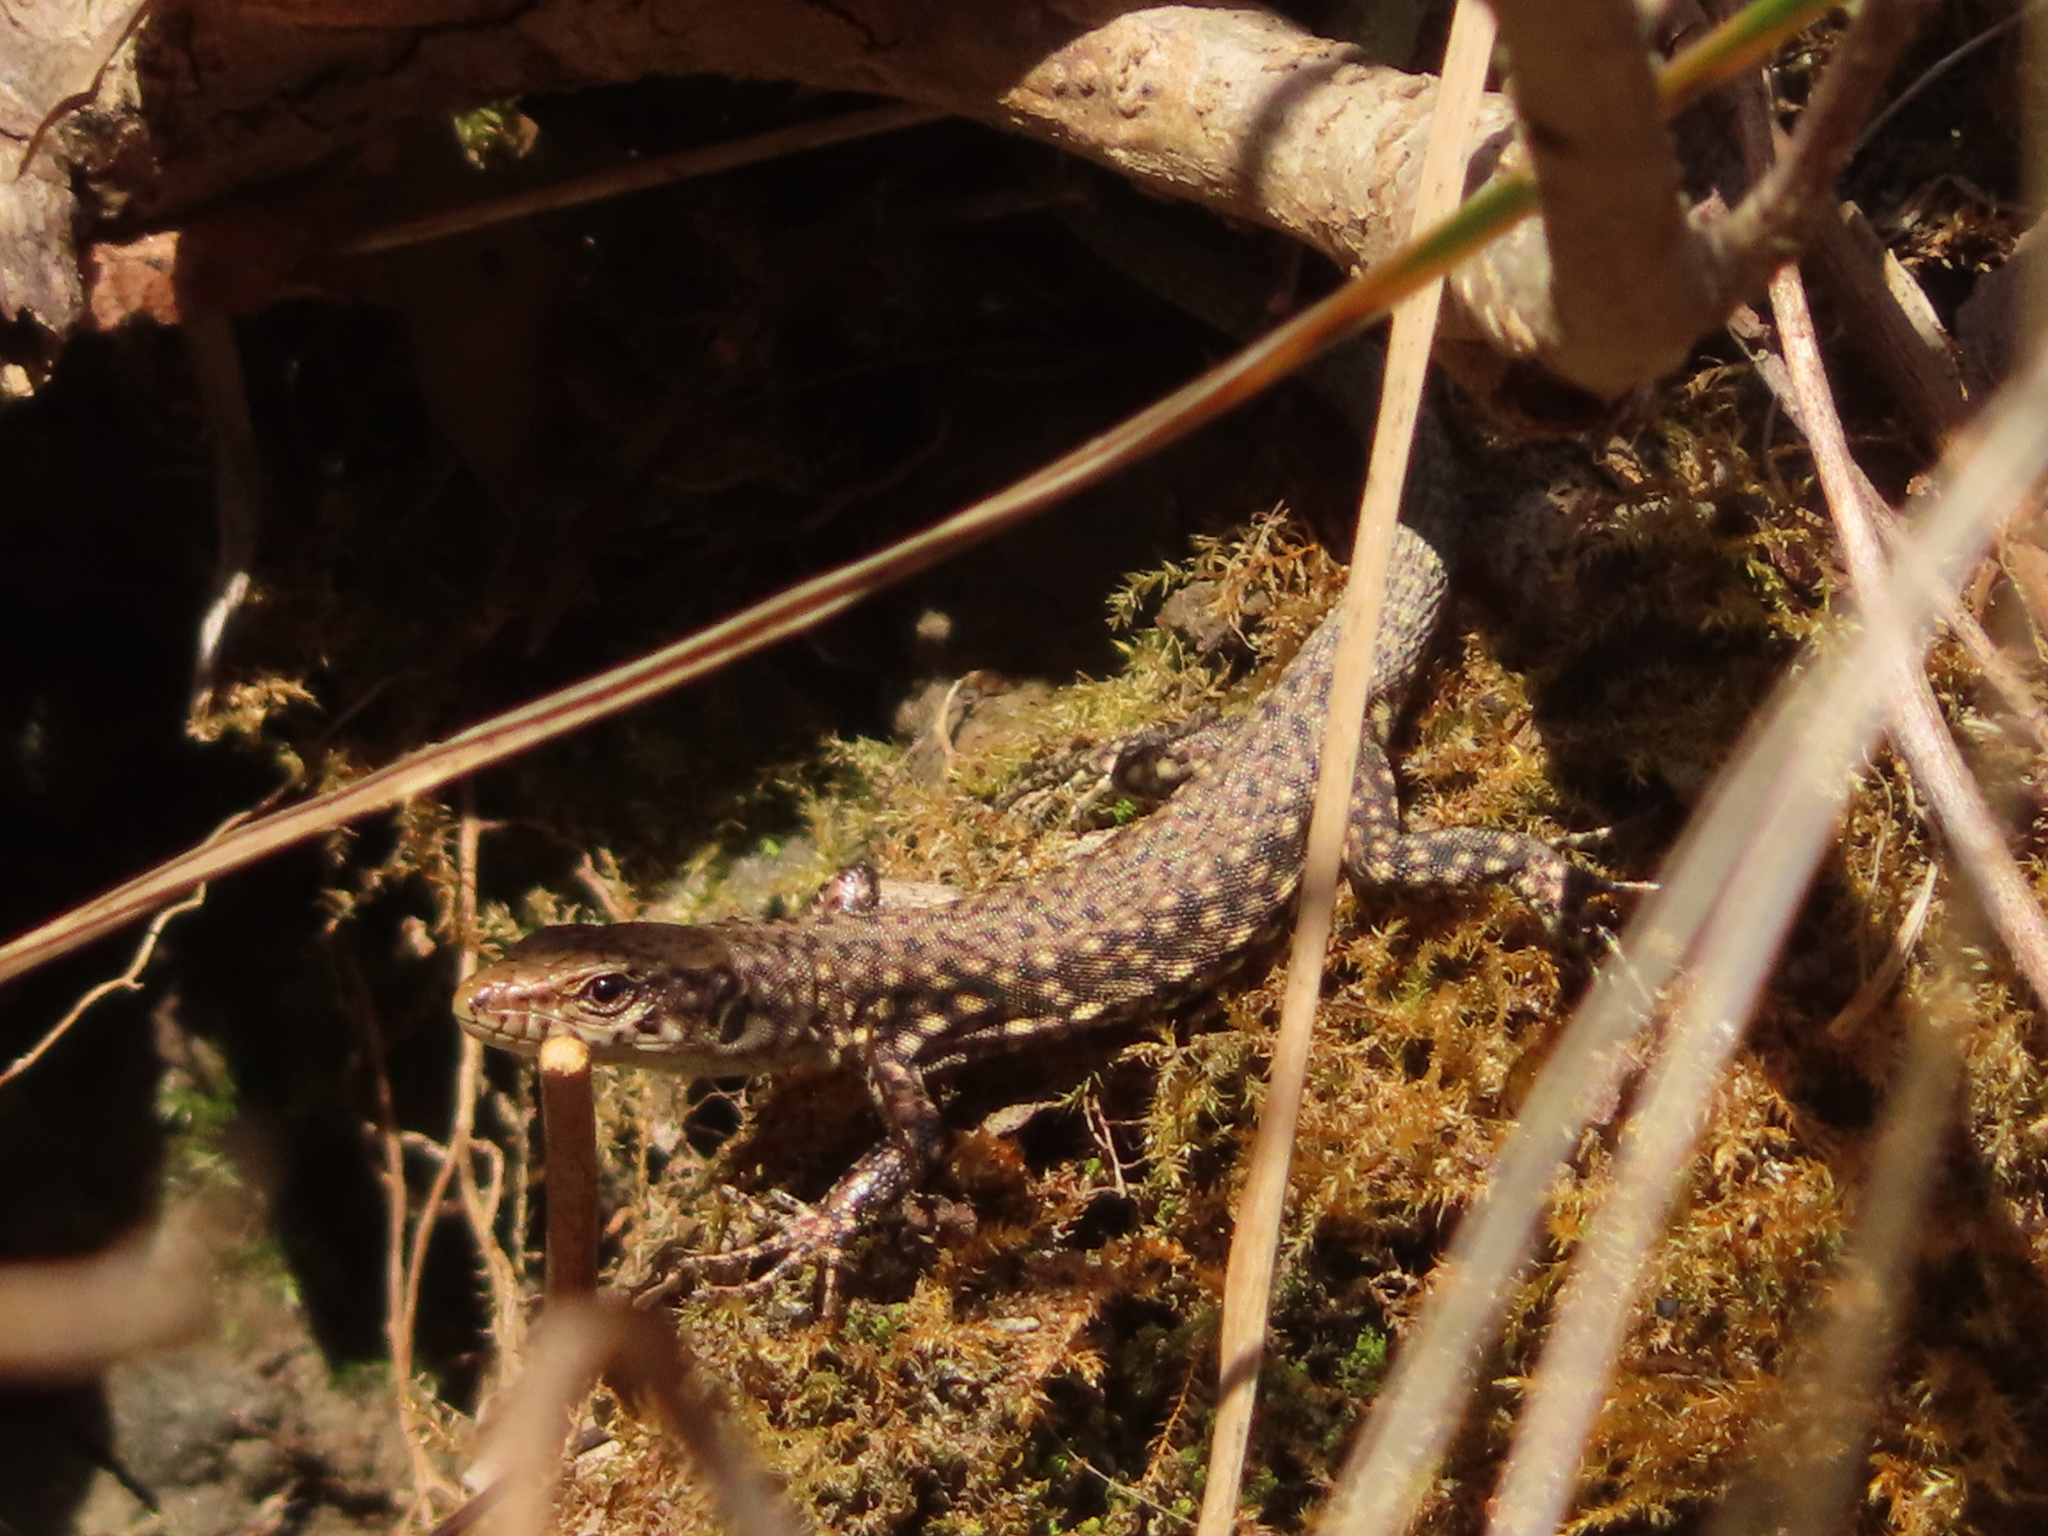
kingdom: Animalia
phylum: Chordata
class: Squamata
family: Lacertidae
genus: Darevskia
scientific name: Darevskia bithynica
